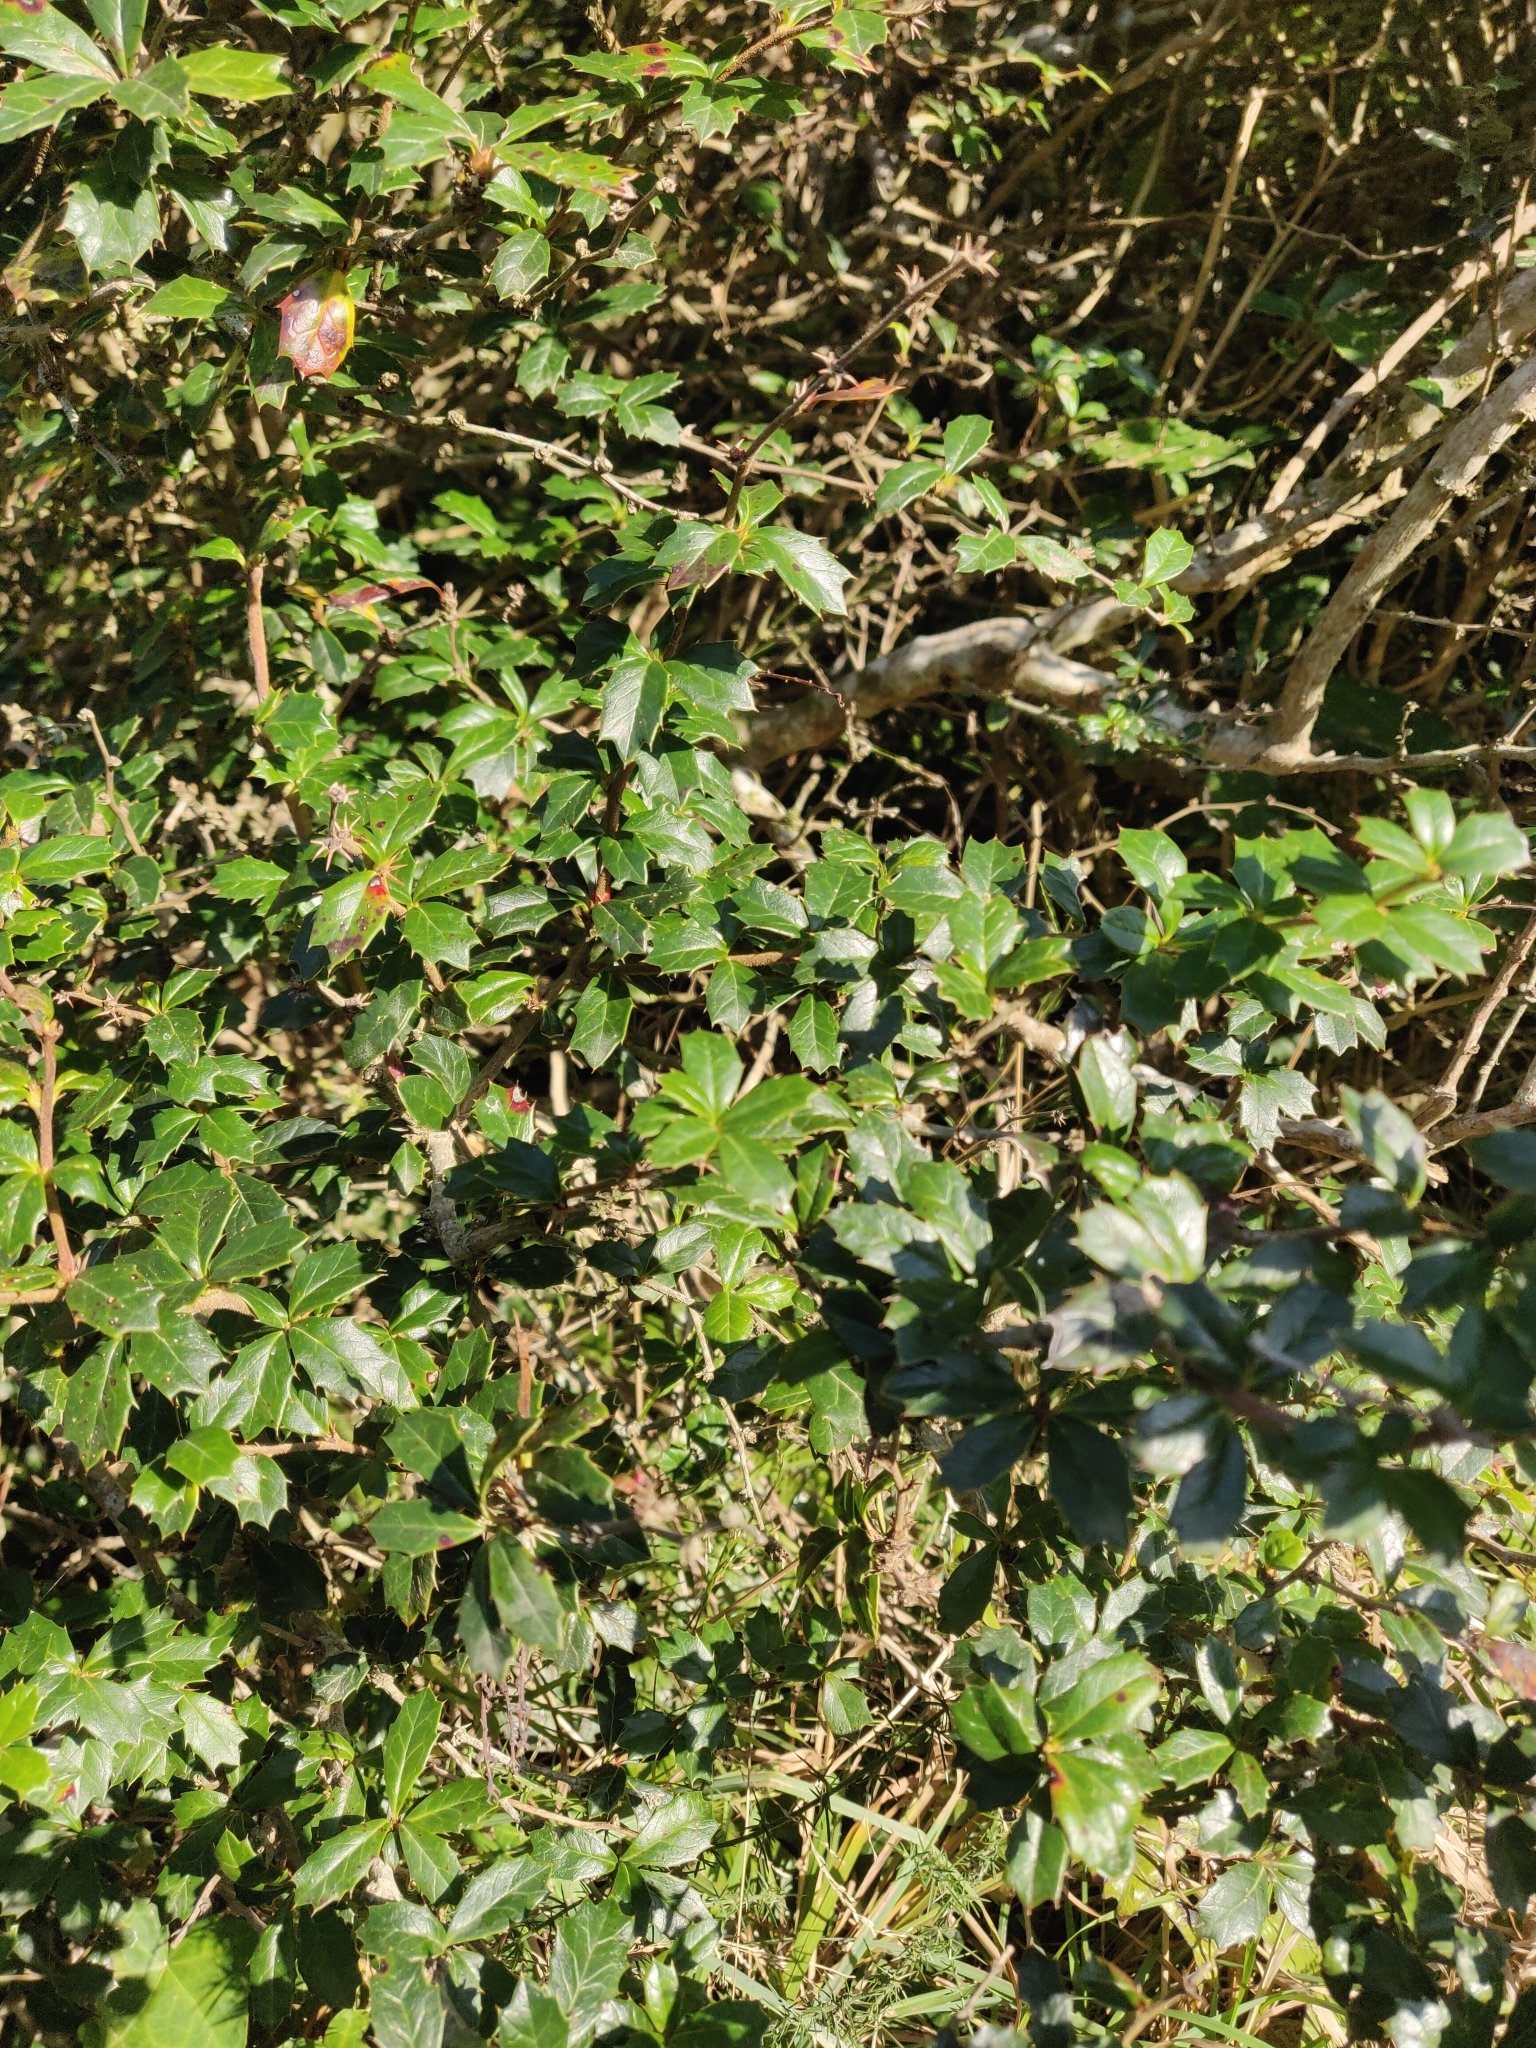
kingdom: Plantae
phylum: Tracheophyta
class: Magnoliopsida
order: Ranunculales
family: Berberidaceae
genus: Berberis
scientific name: Berberis darwinii
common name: Darwin's barberry
